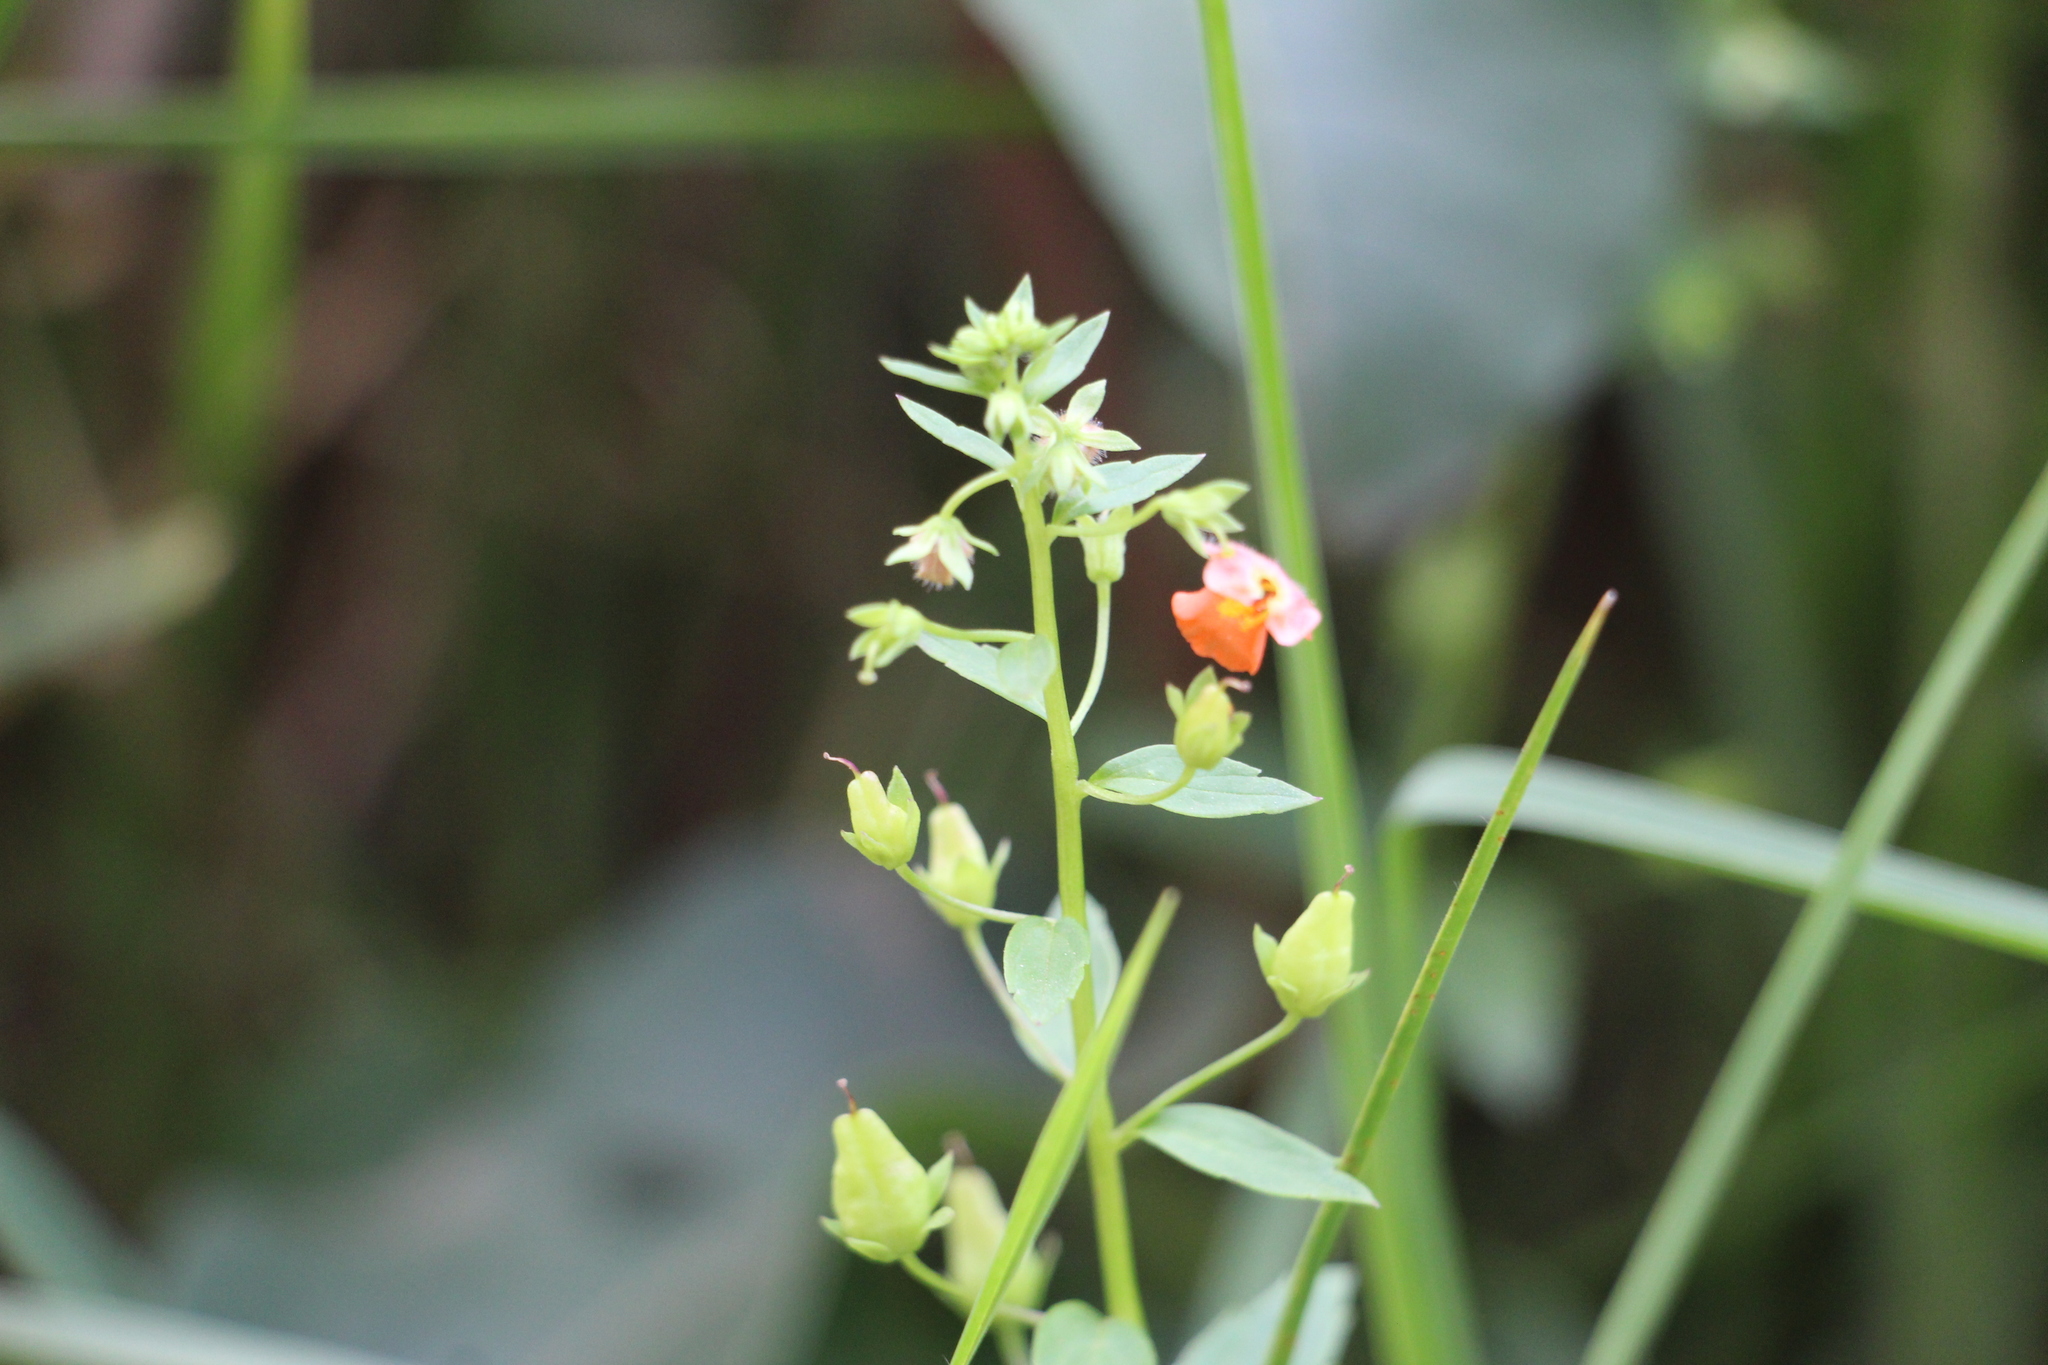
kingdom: Plantae
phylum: Tracheophyta
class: Magnoliopsida
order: Lamiales
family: Scrophulariaceae
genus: Alonsoa
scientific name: Alonsoa meridionalis
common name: Maskflower
